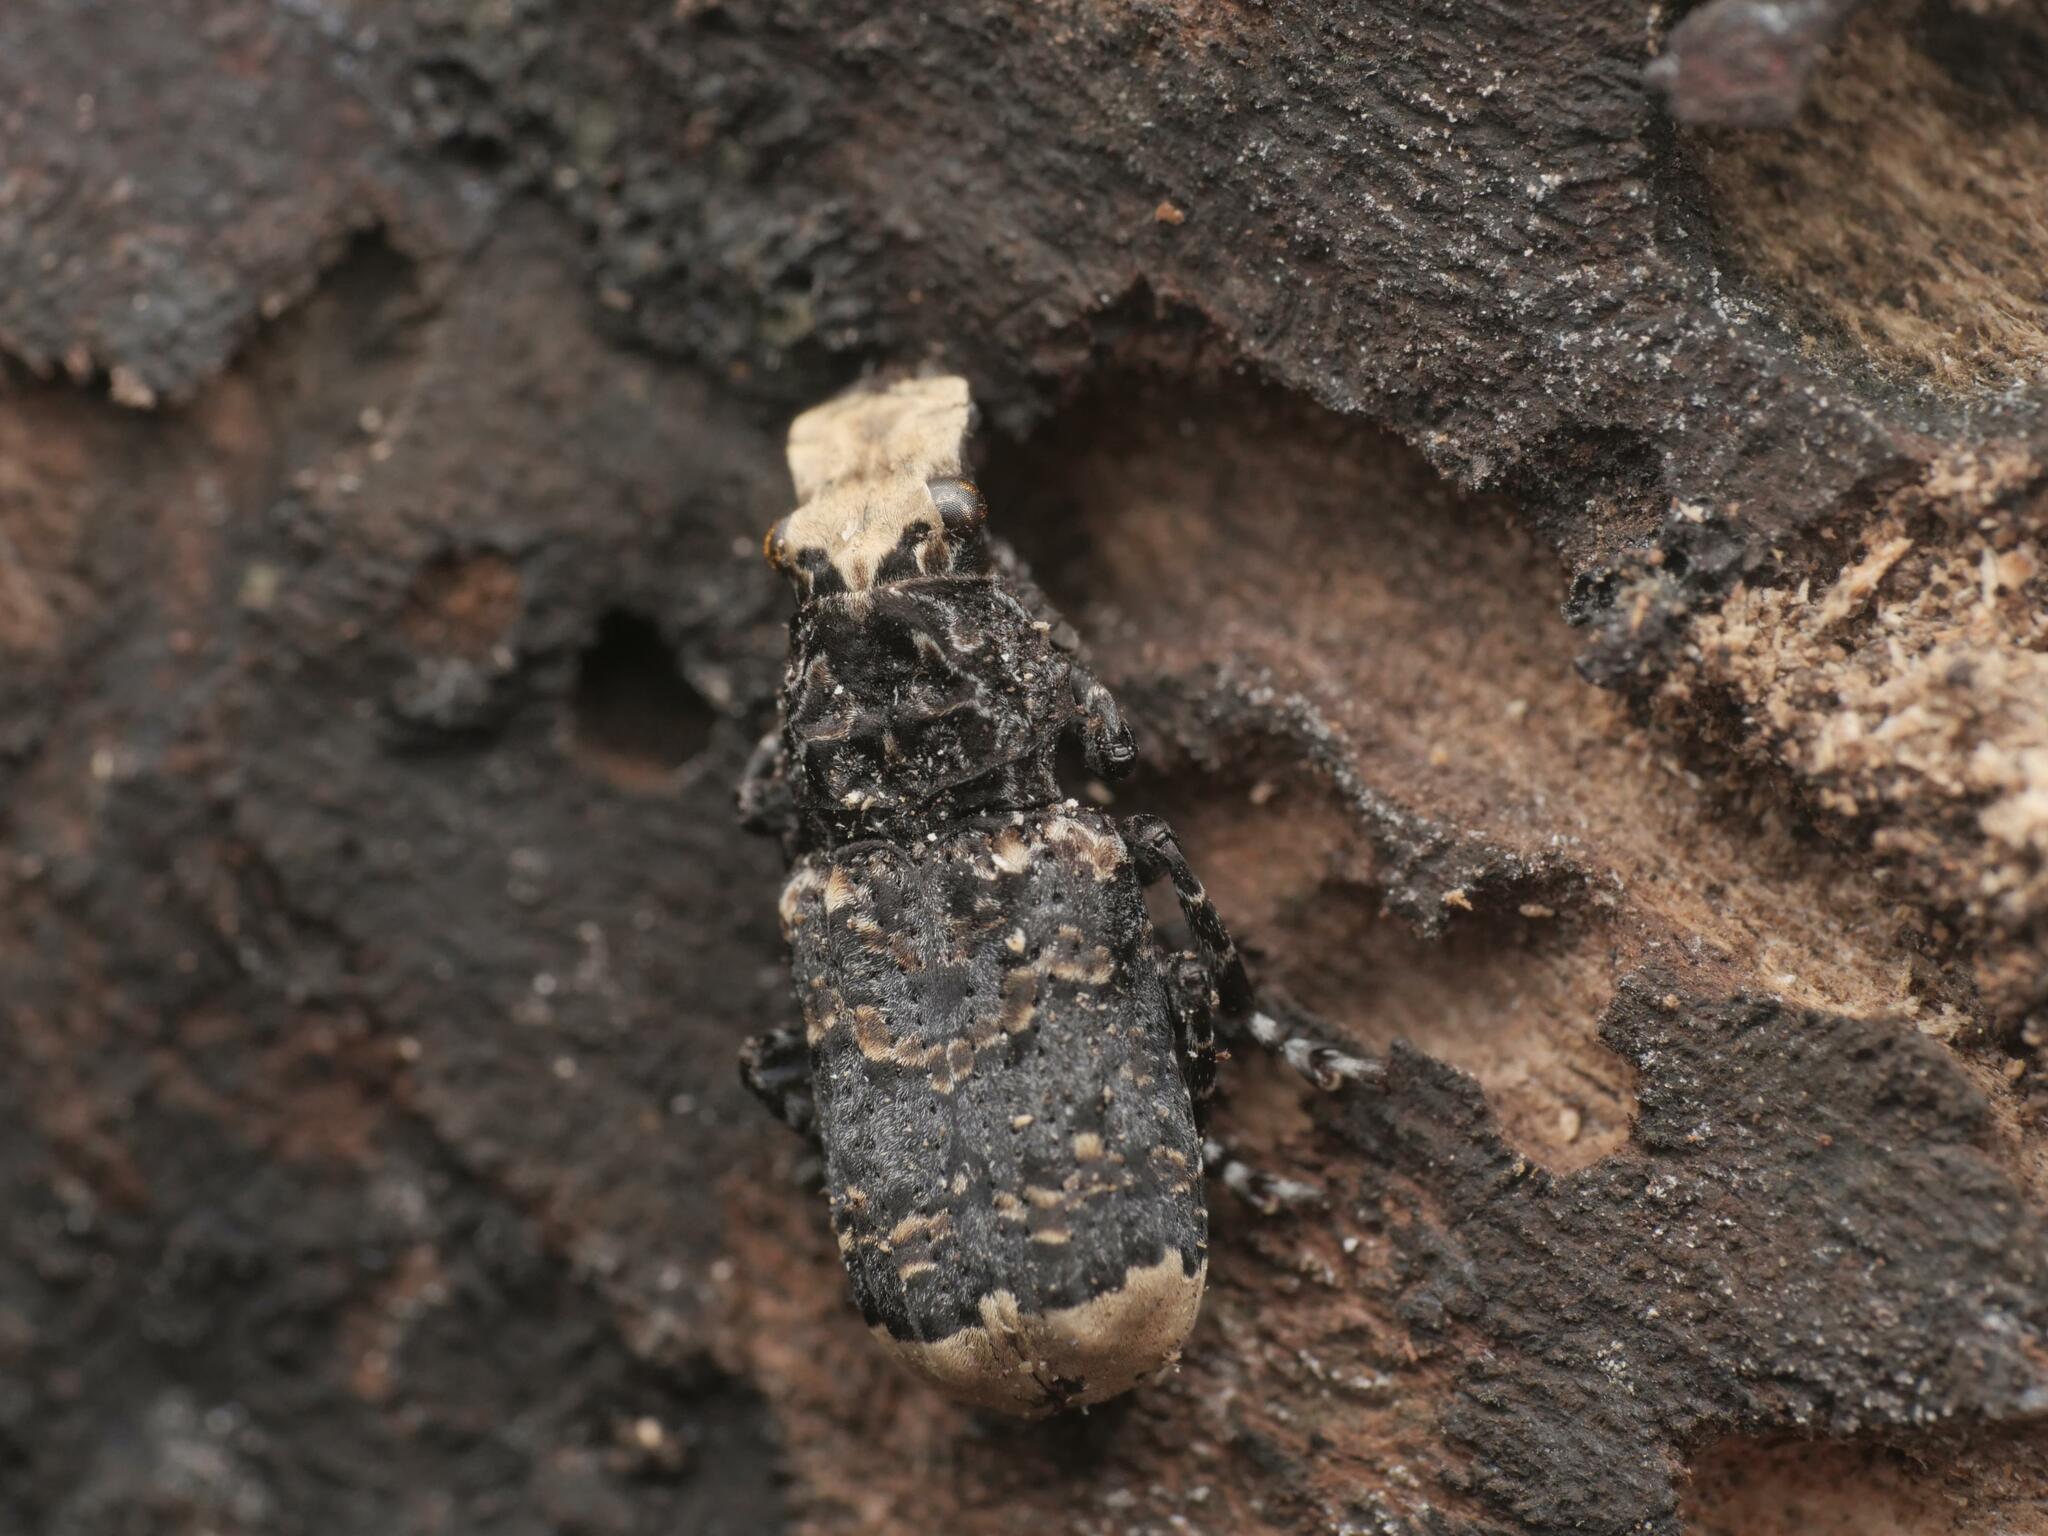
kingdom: Animalia
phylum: Arthropoda
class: Insecta
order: Coleoptera
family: Anthribidae
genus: Platyrhinus
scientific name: Platyrhinus resinosus
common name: Cramp-ball fungus weevil
